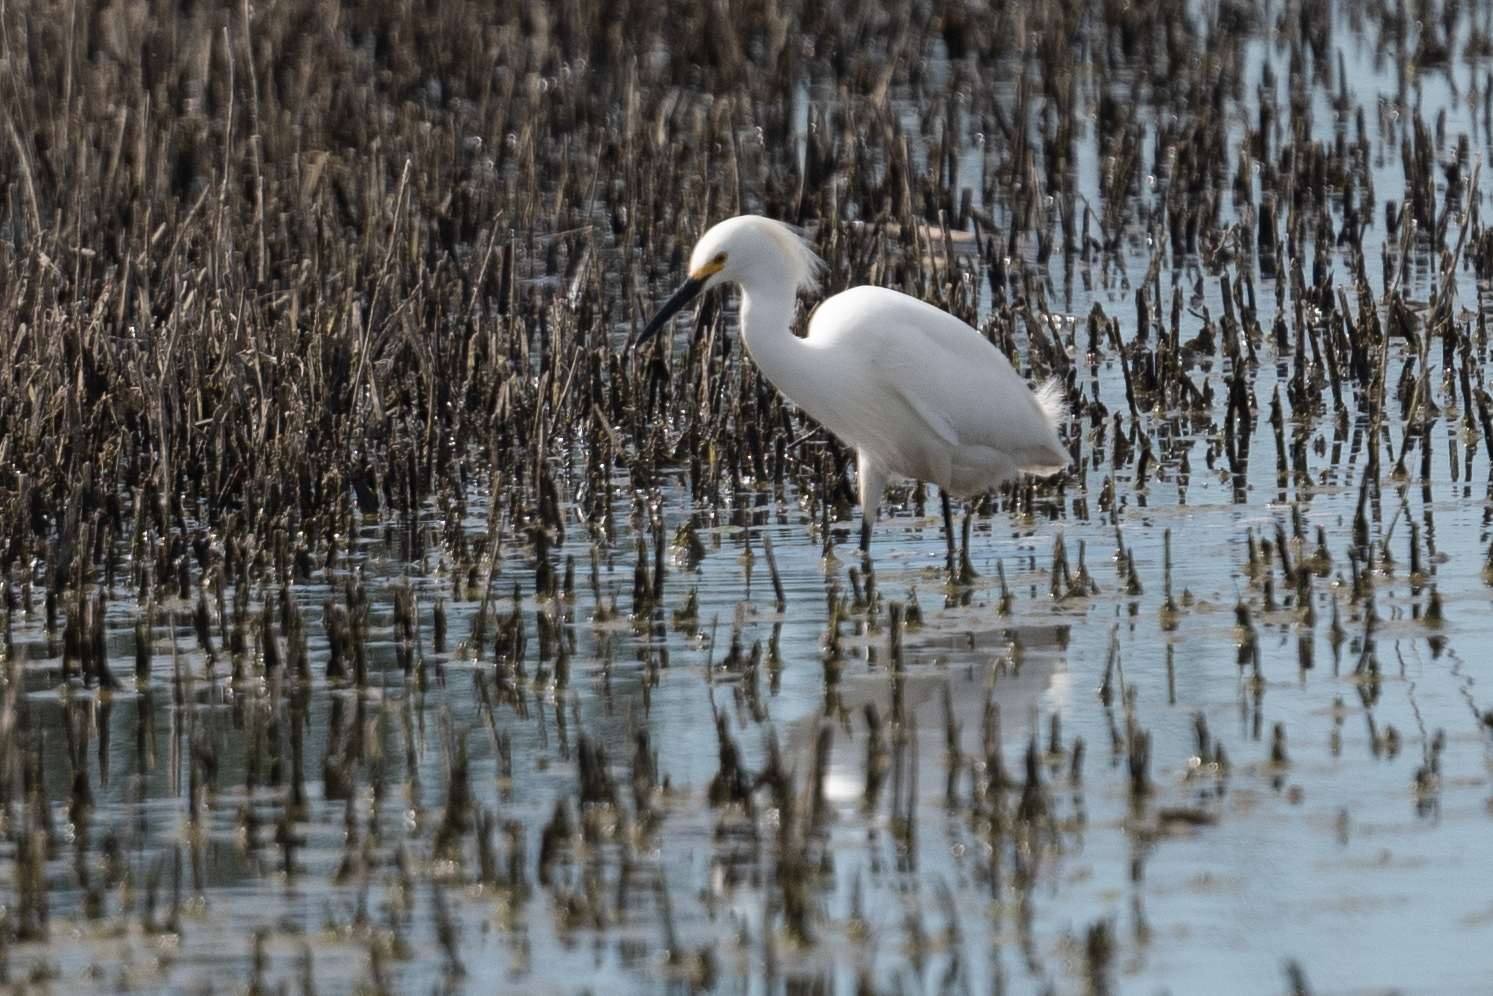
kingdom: Animalia
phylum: Chordata
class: Aves
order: Pelecaniformes
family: Ardeidae
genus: Egretta
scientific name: Egretta thula
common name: Snowy egret
